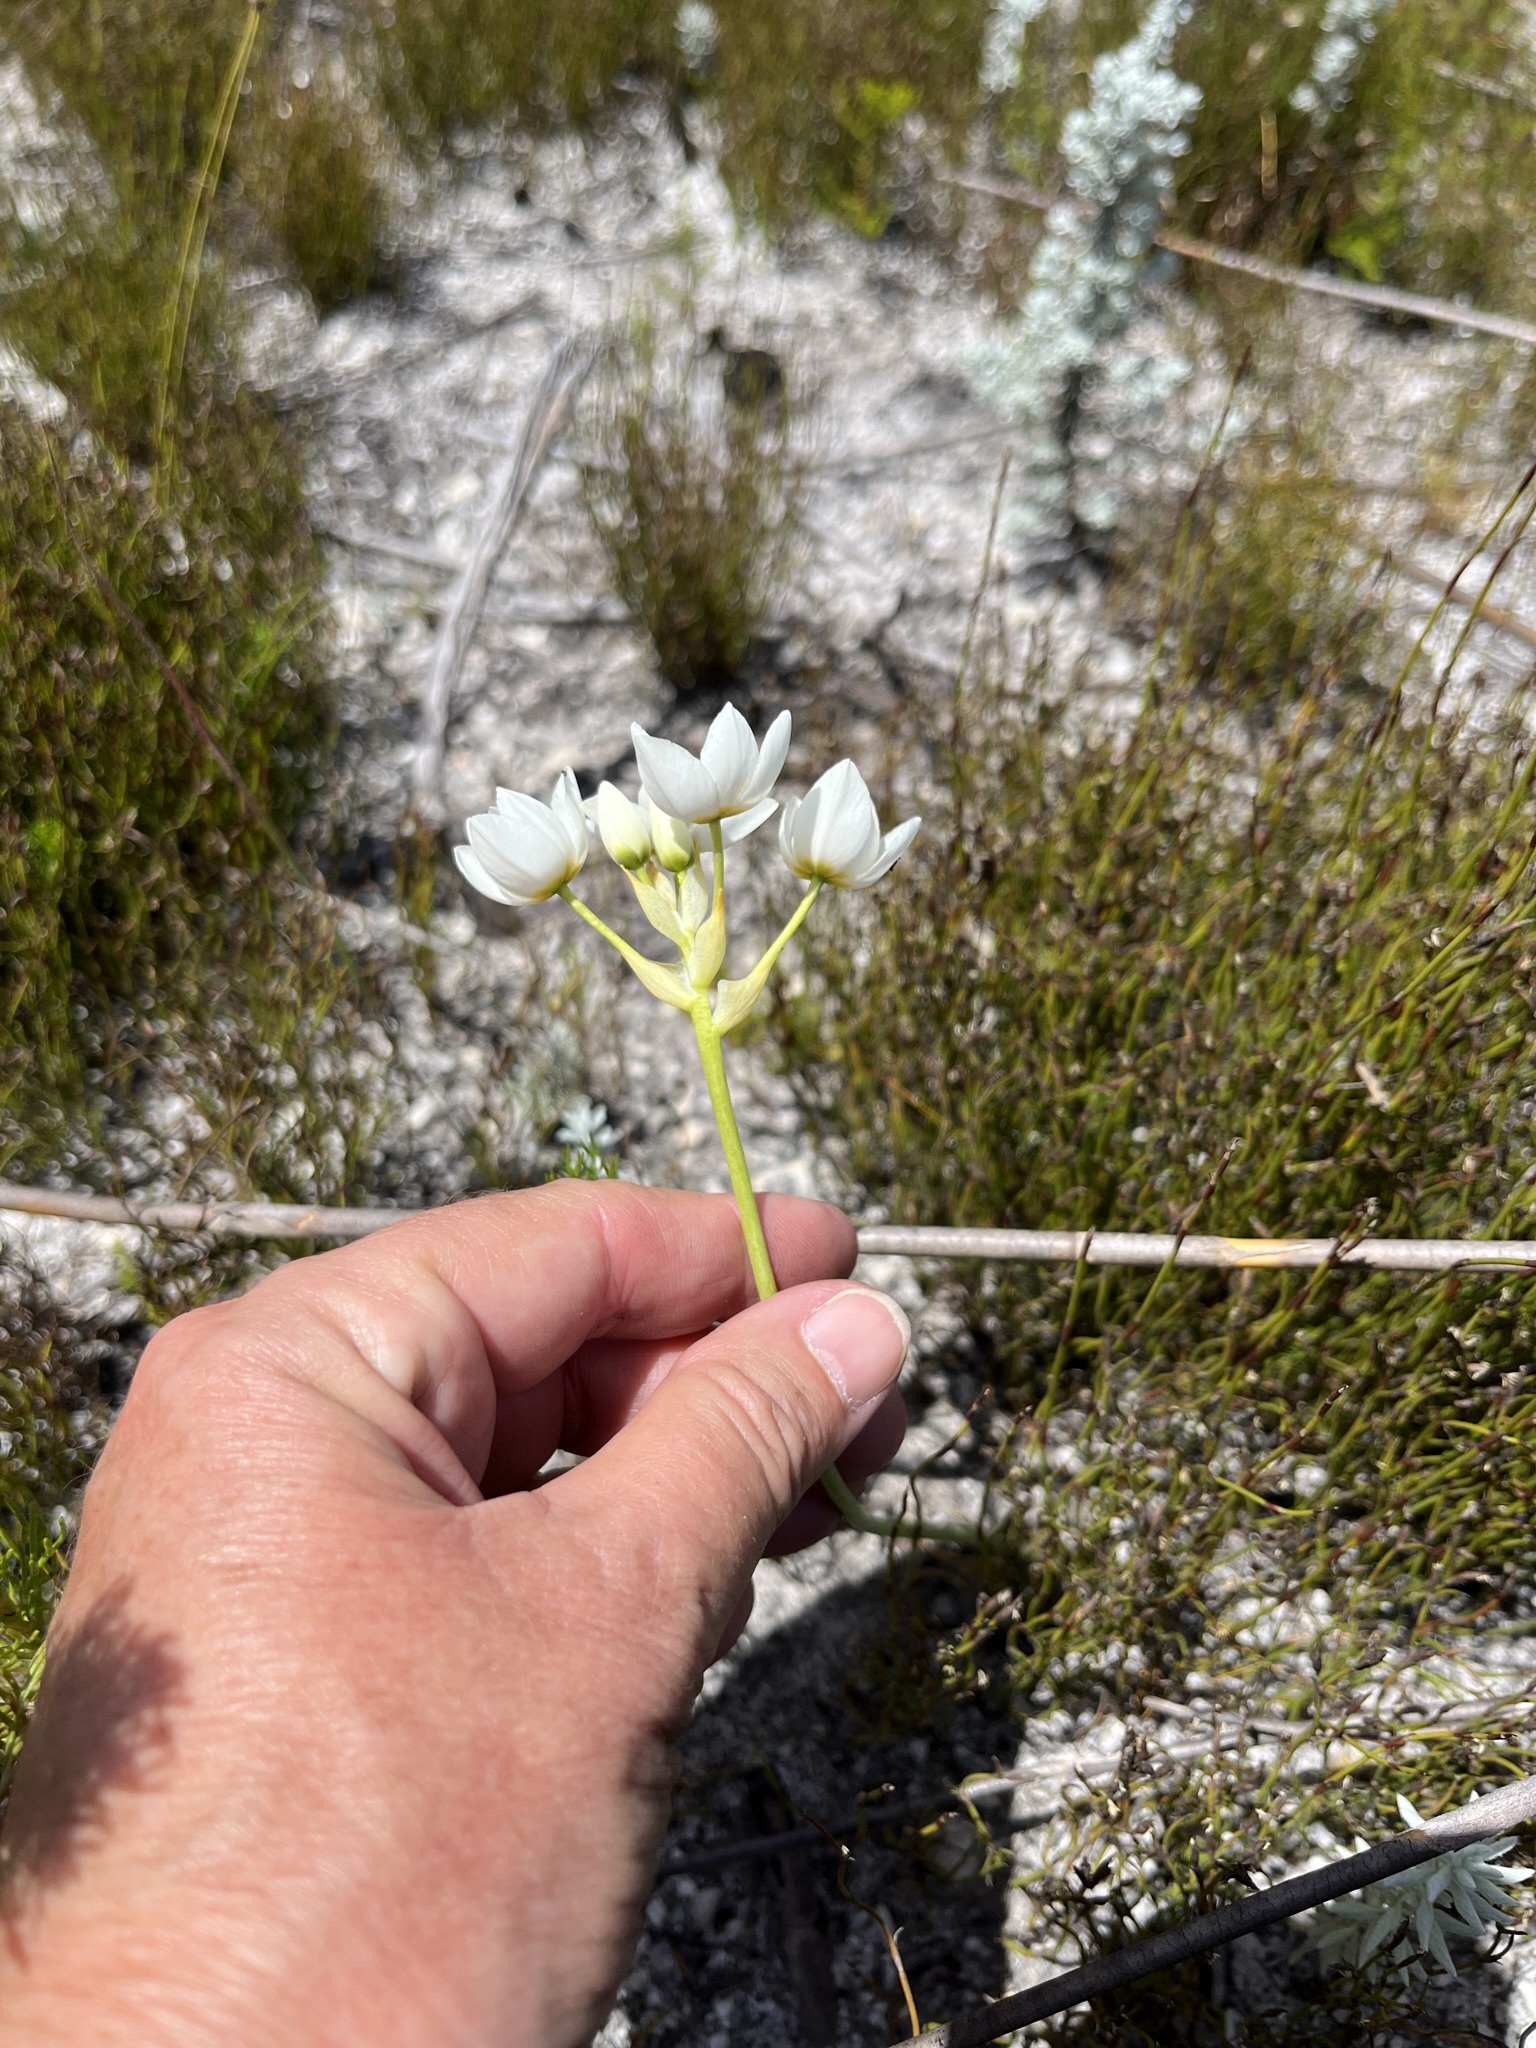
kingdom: Plantae
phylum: Tracheophyta
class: Liliopsida
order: Asparagales
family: Asparagaceae
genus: Ornithogalum
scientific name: Ornithogalum thyrsoides
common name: Chincherinchee
